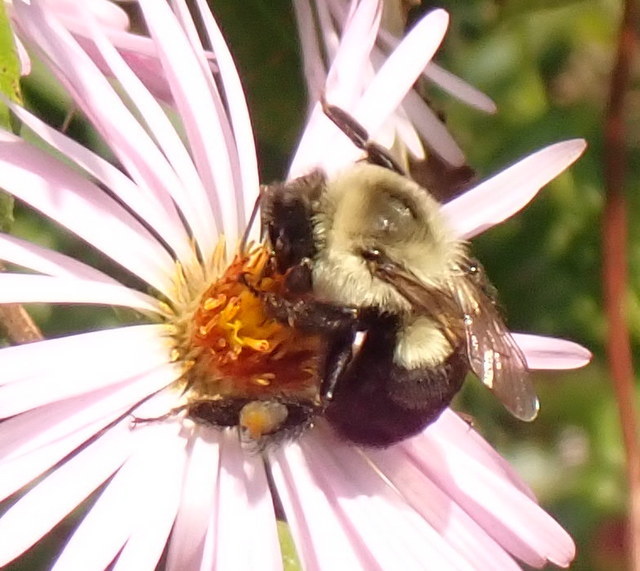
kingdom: Animalia
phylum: Arthropoda
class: Insecta
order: Hymenoptera
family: Apidae
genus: Bombus
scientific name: Bombus impatiens
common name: Common eastern bumble bee
